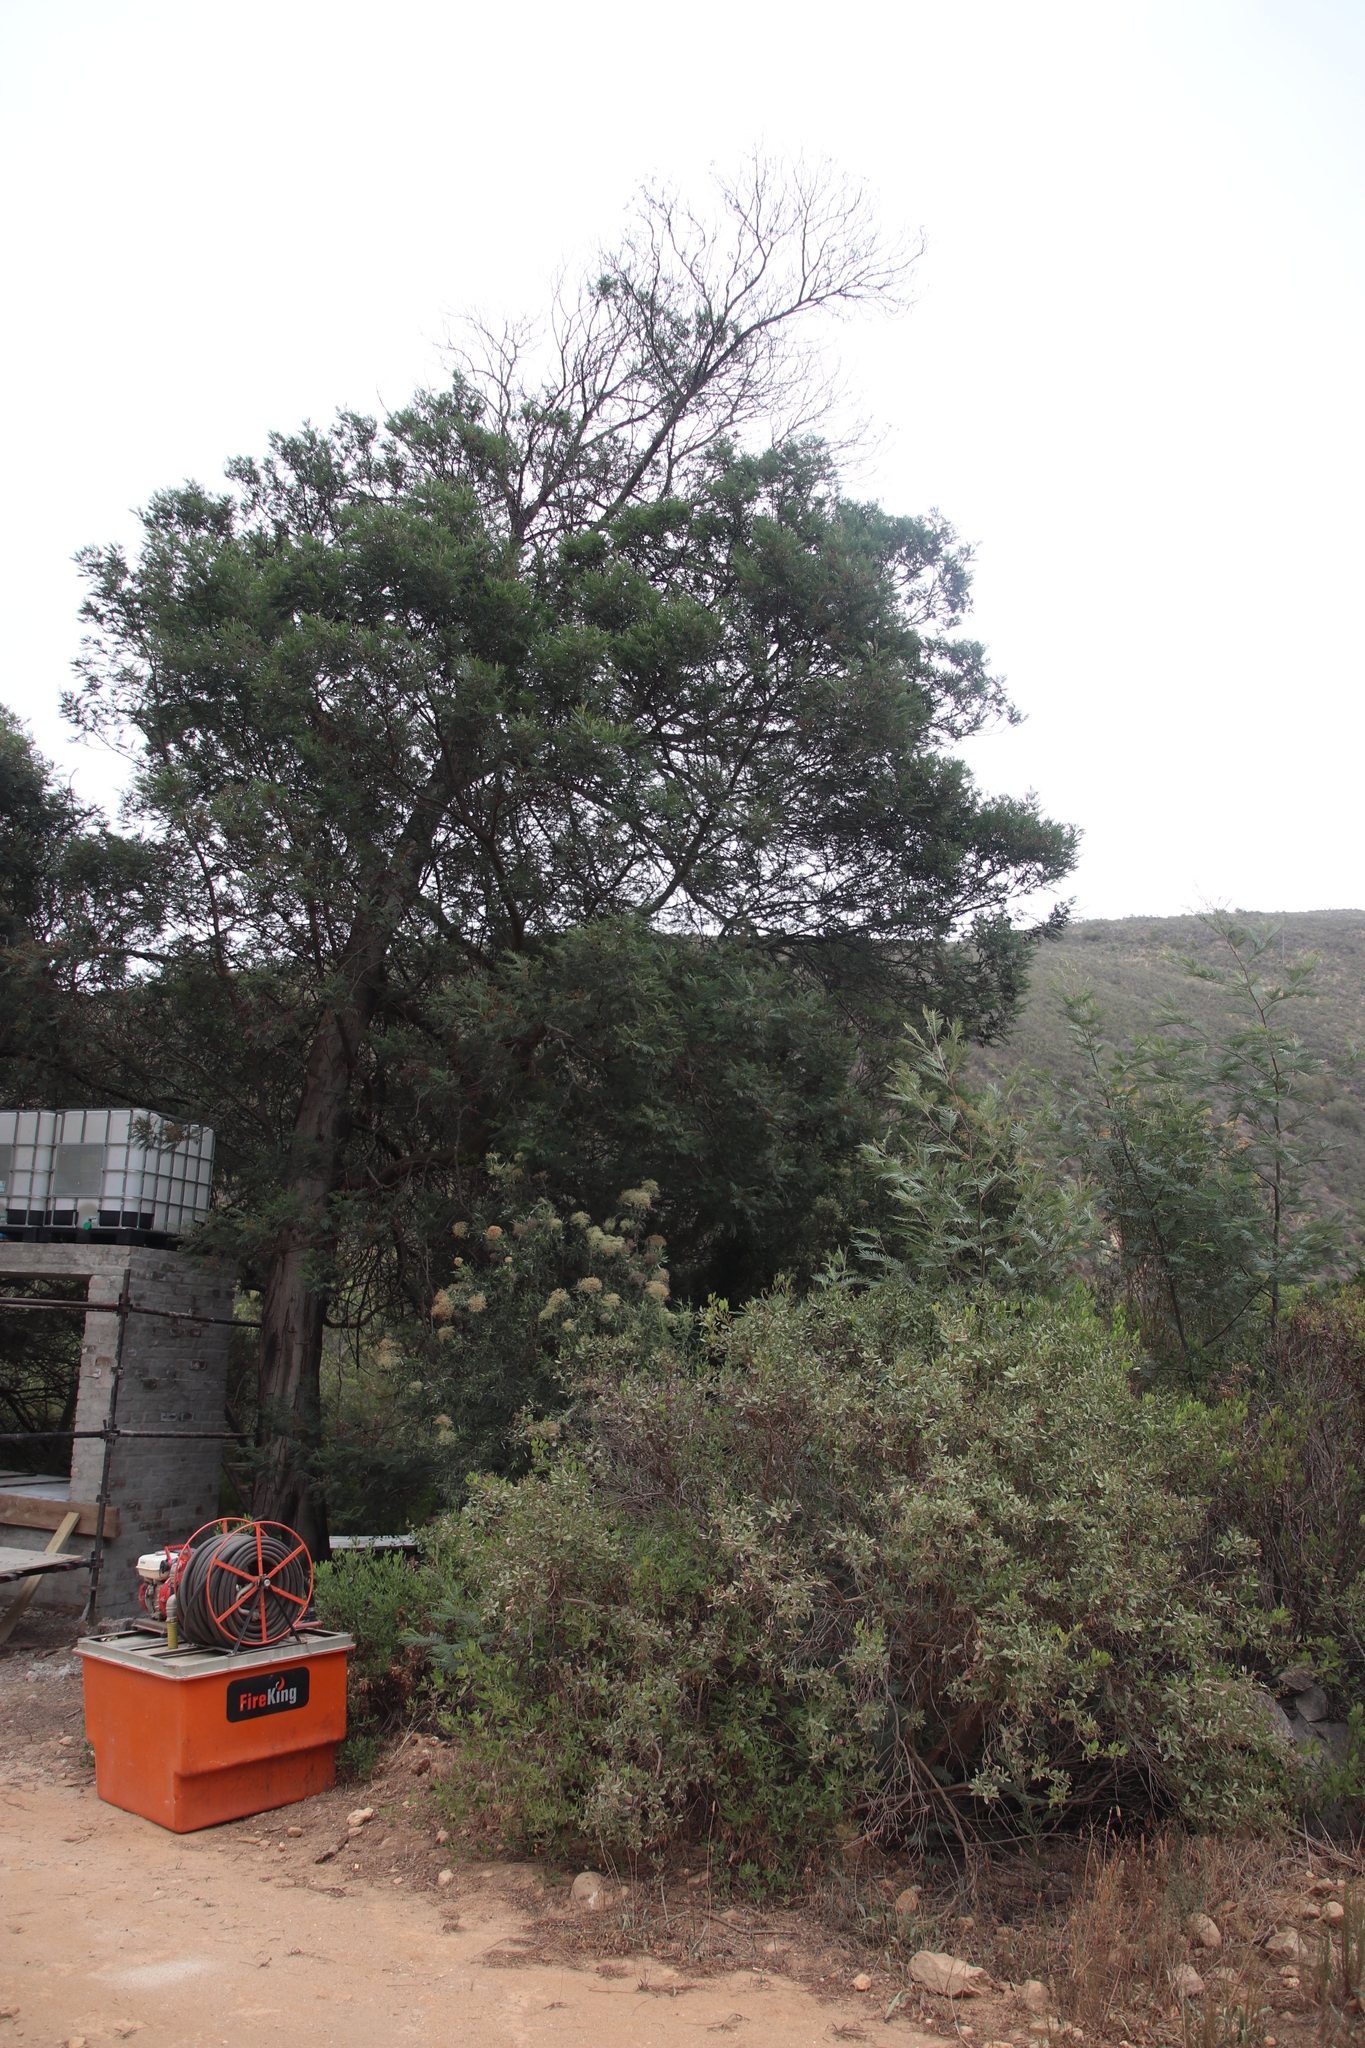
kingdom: Animalia
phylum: Arthropoda
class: Insecta
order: Diptera
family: Cecidomyiidae
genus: Dasineura
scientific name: Dasineura rubiformis
